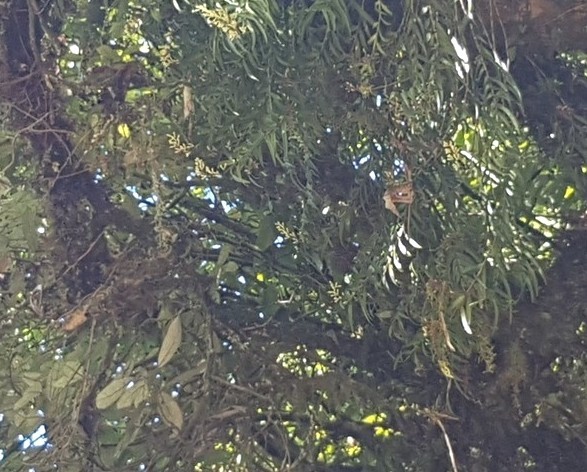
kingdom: Plantae
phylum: Tracheophyta
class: Liliopsida
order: Asparagales
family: Orchidaceae
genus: Earina
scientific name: Earina autumnalis
